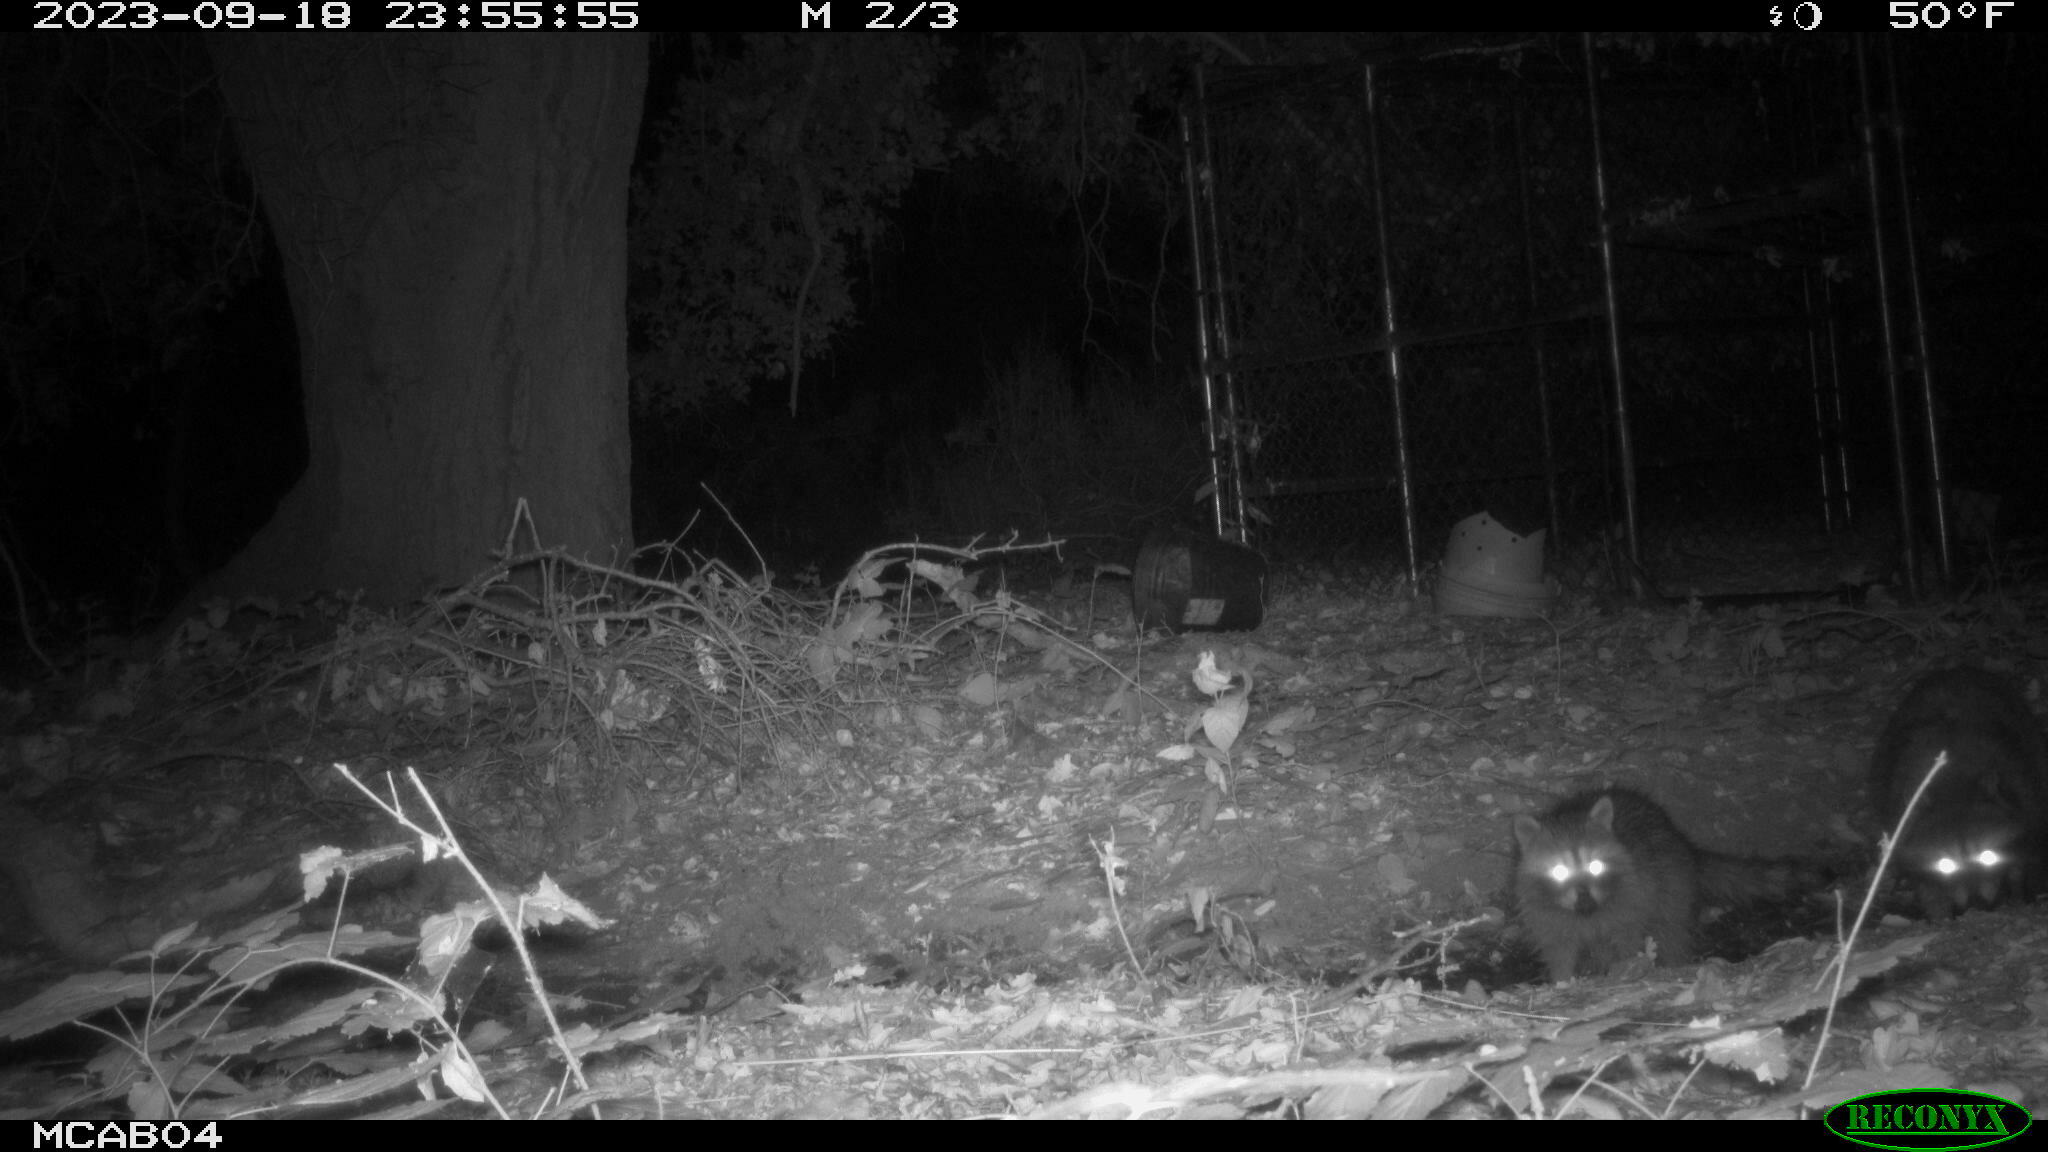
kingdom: Animalia
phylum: Chordata
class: Mammalia
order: Carnivora
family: Procyonidae
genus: Procyon
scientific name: Procyon lotor
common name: Raccoon
